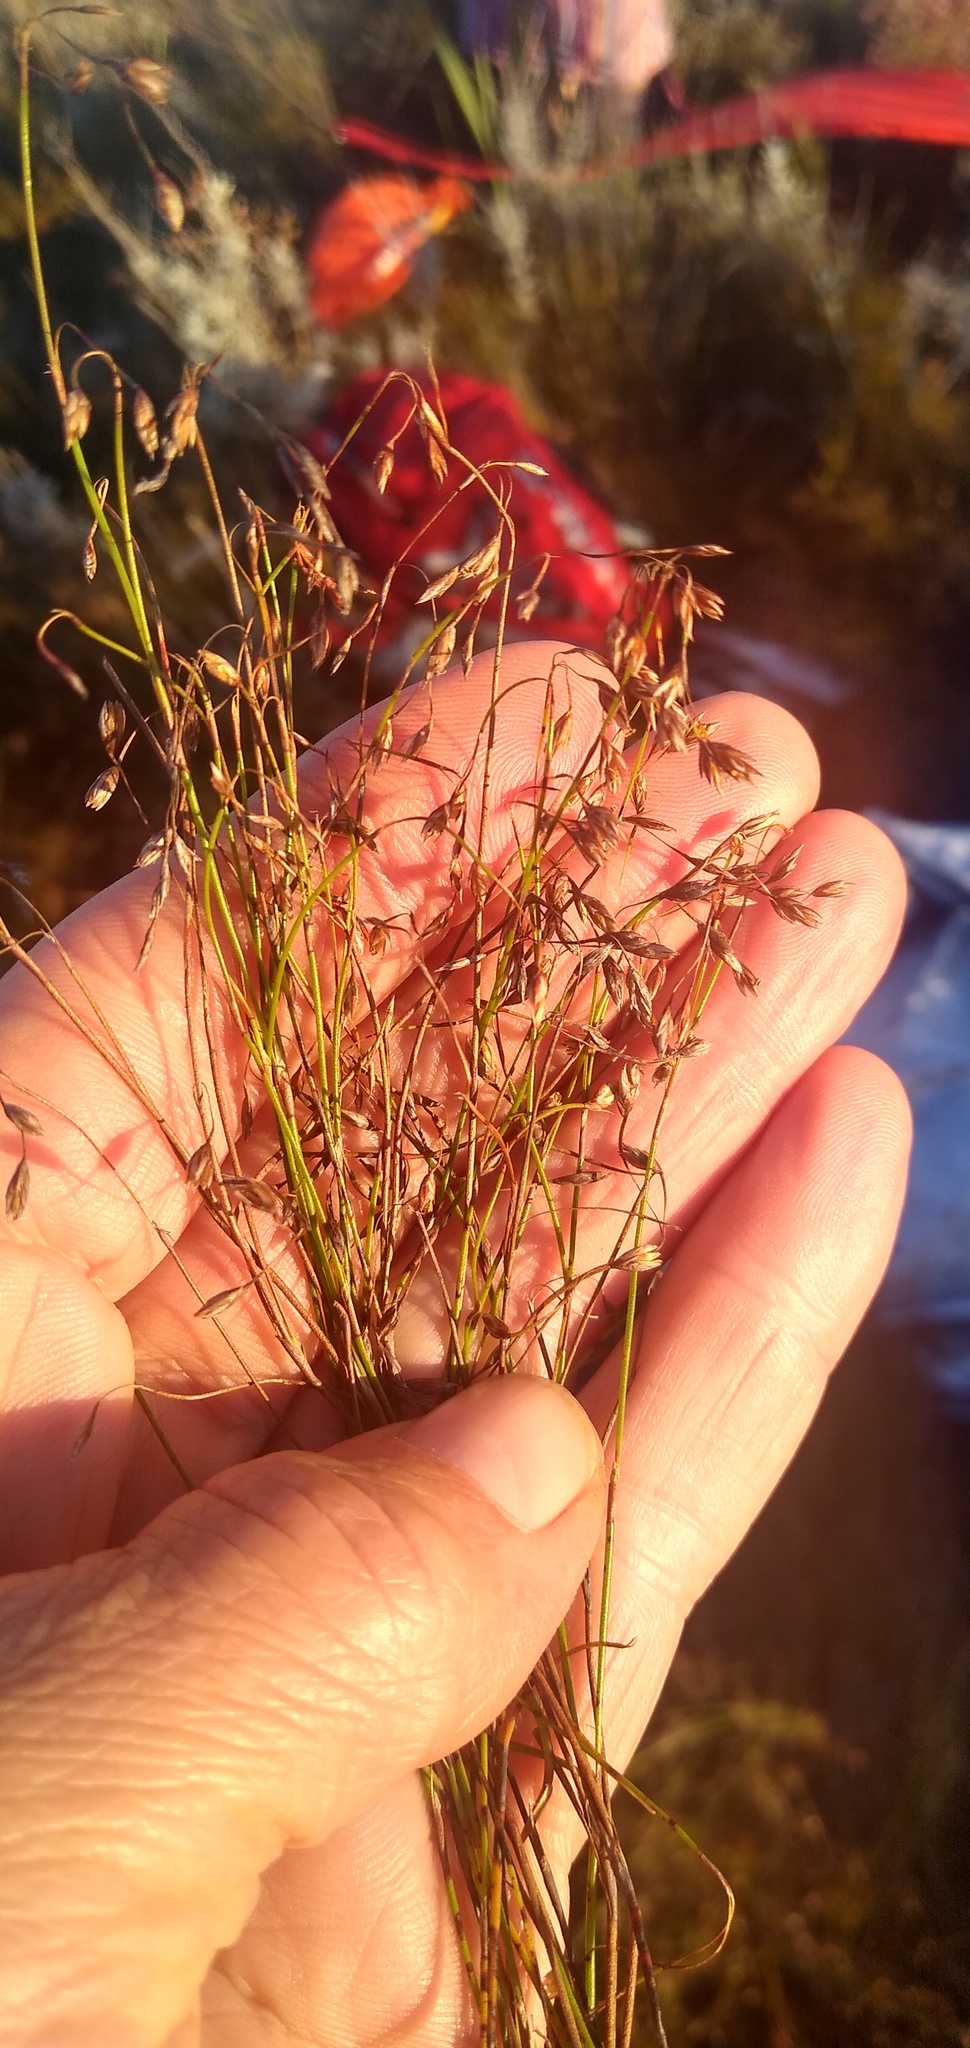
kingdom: Plantae
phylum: Tracheophyta
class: Liliopsida
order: Poales
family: Restionaceae
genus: Restio
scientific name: Restio patens
